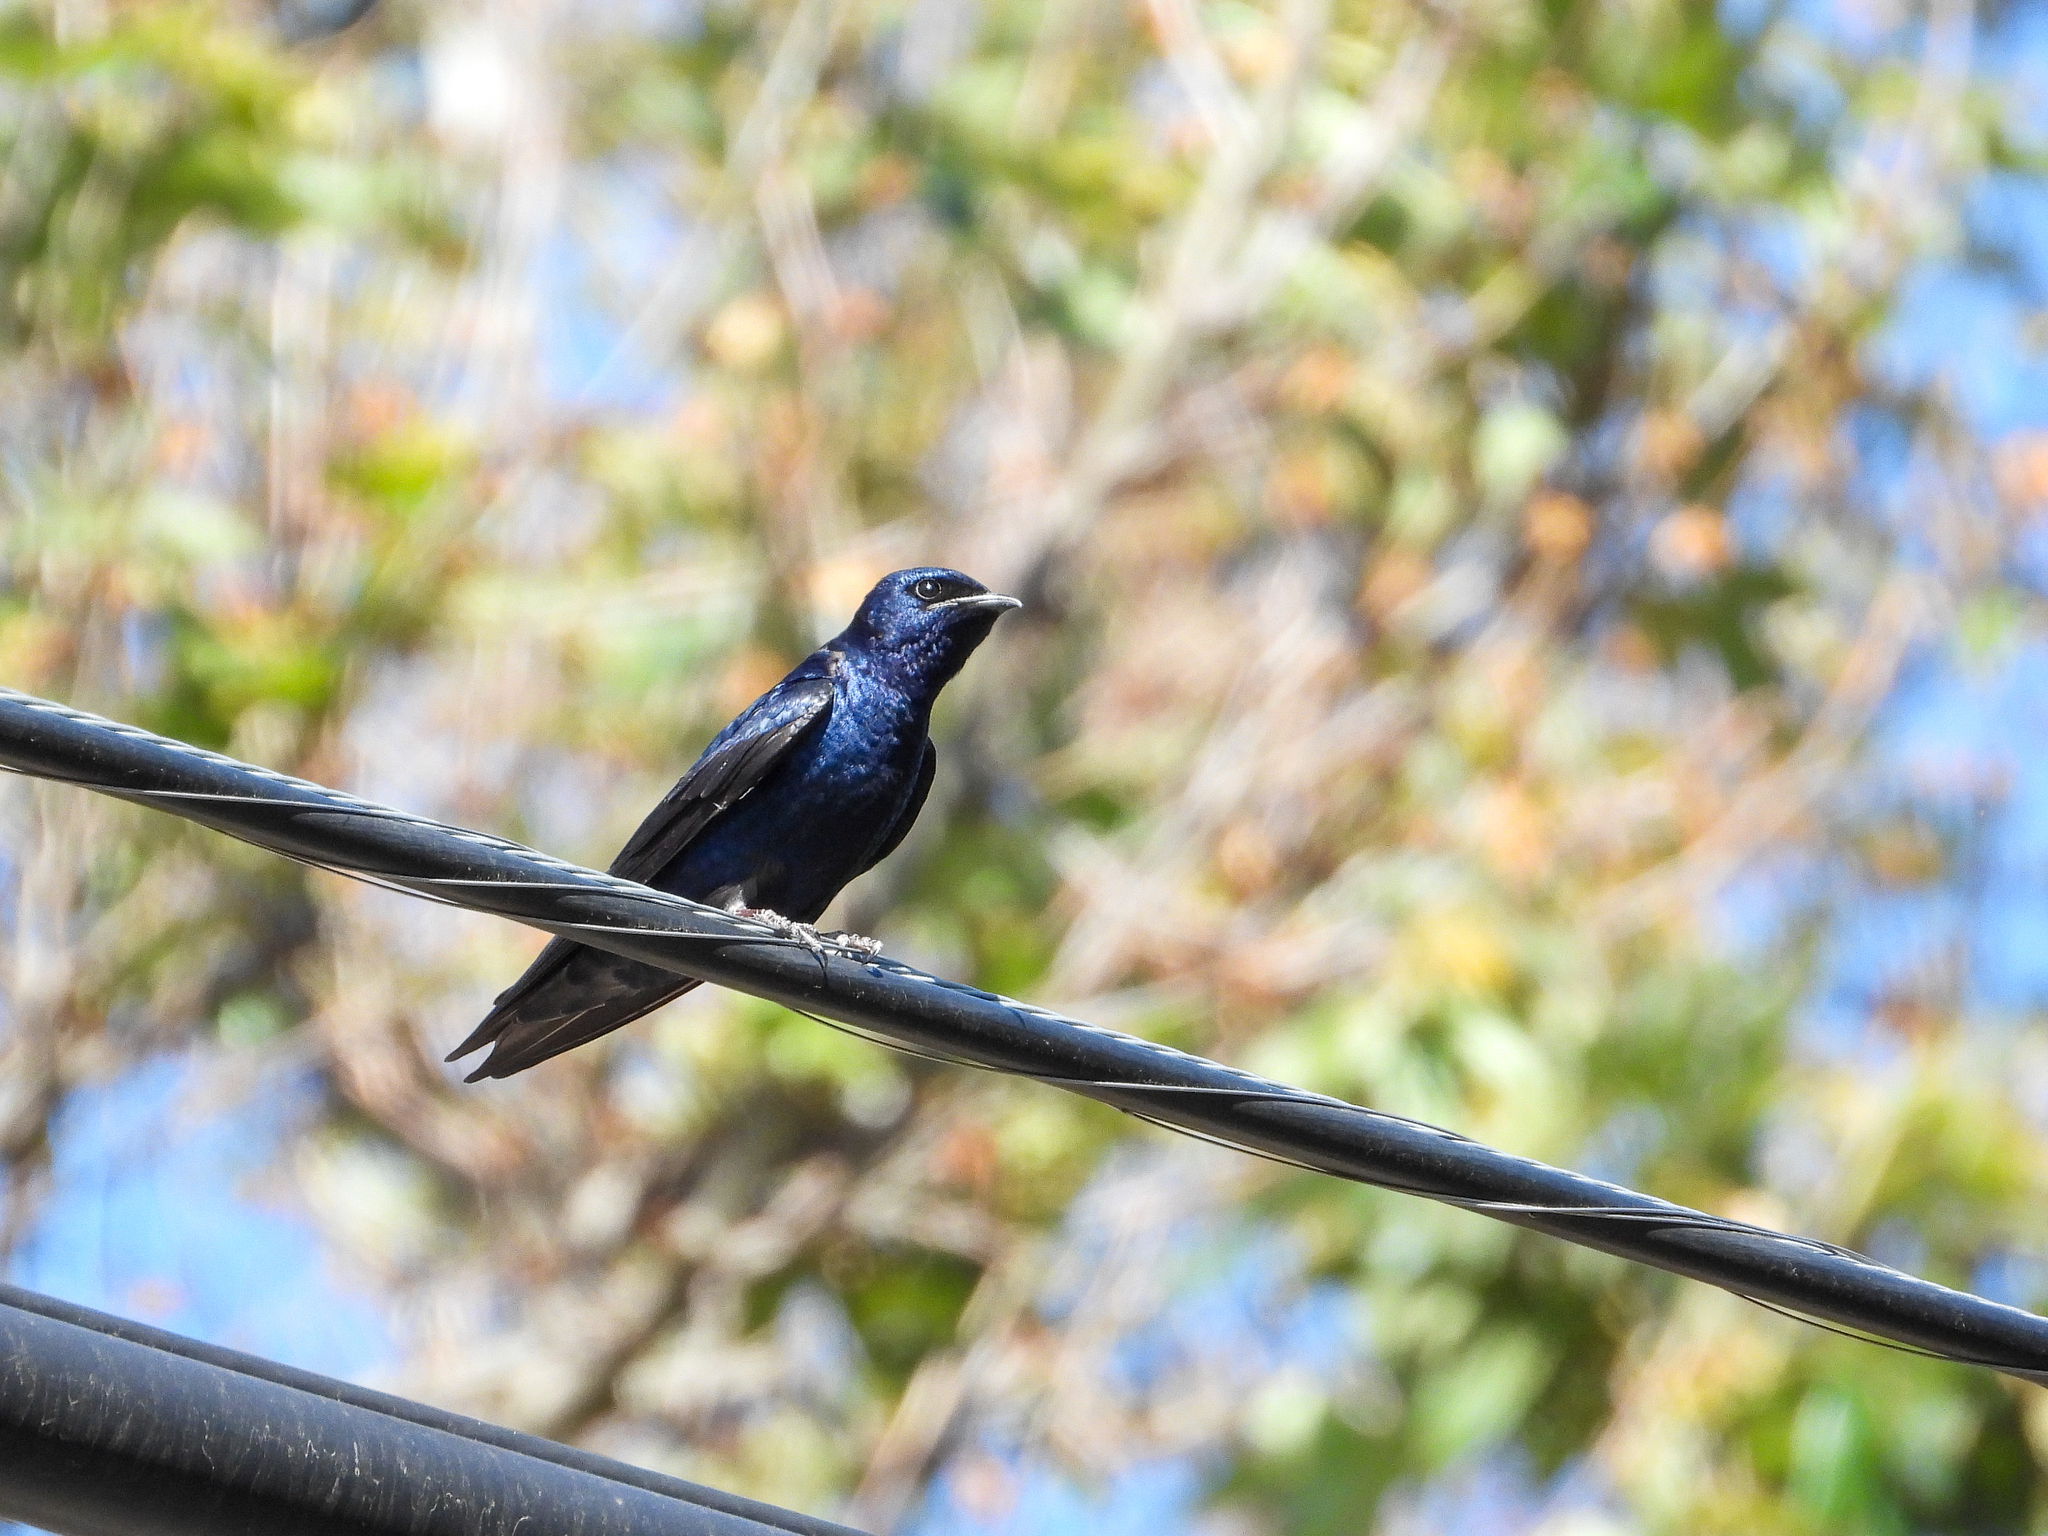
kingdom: Animalia
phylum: Chordata
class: Aves
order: Passeriformes
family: Hirundinidae
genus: Progne
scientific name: Progne subis
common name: Purple martin
